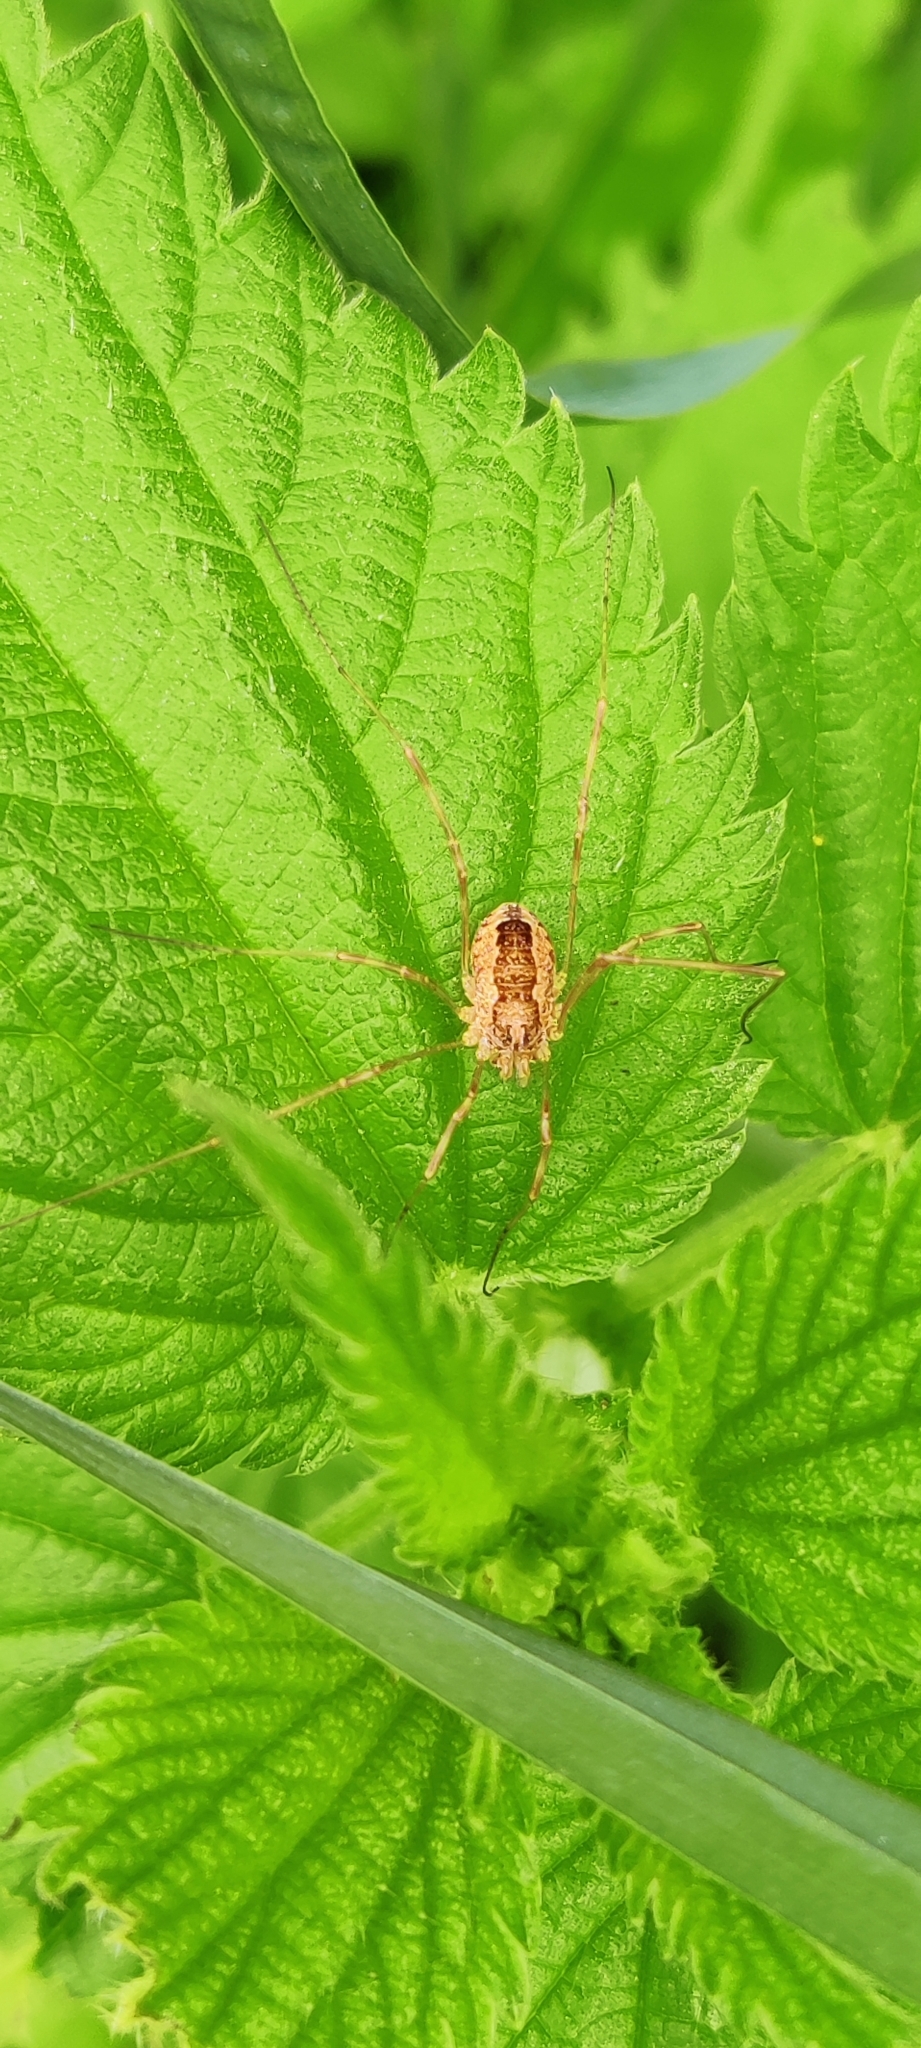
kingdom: Animalia
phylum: Arthropoda
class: Arachnida
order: Opiliones
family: Phalangiidae
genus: Rilaena
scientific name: Rilaena triangularis
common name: Spring harvestman
